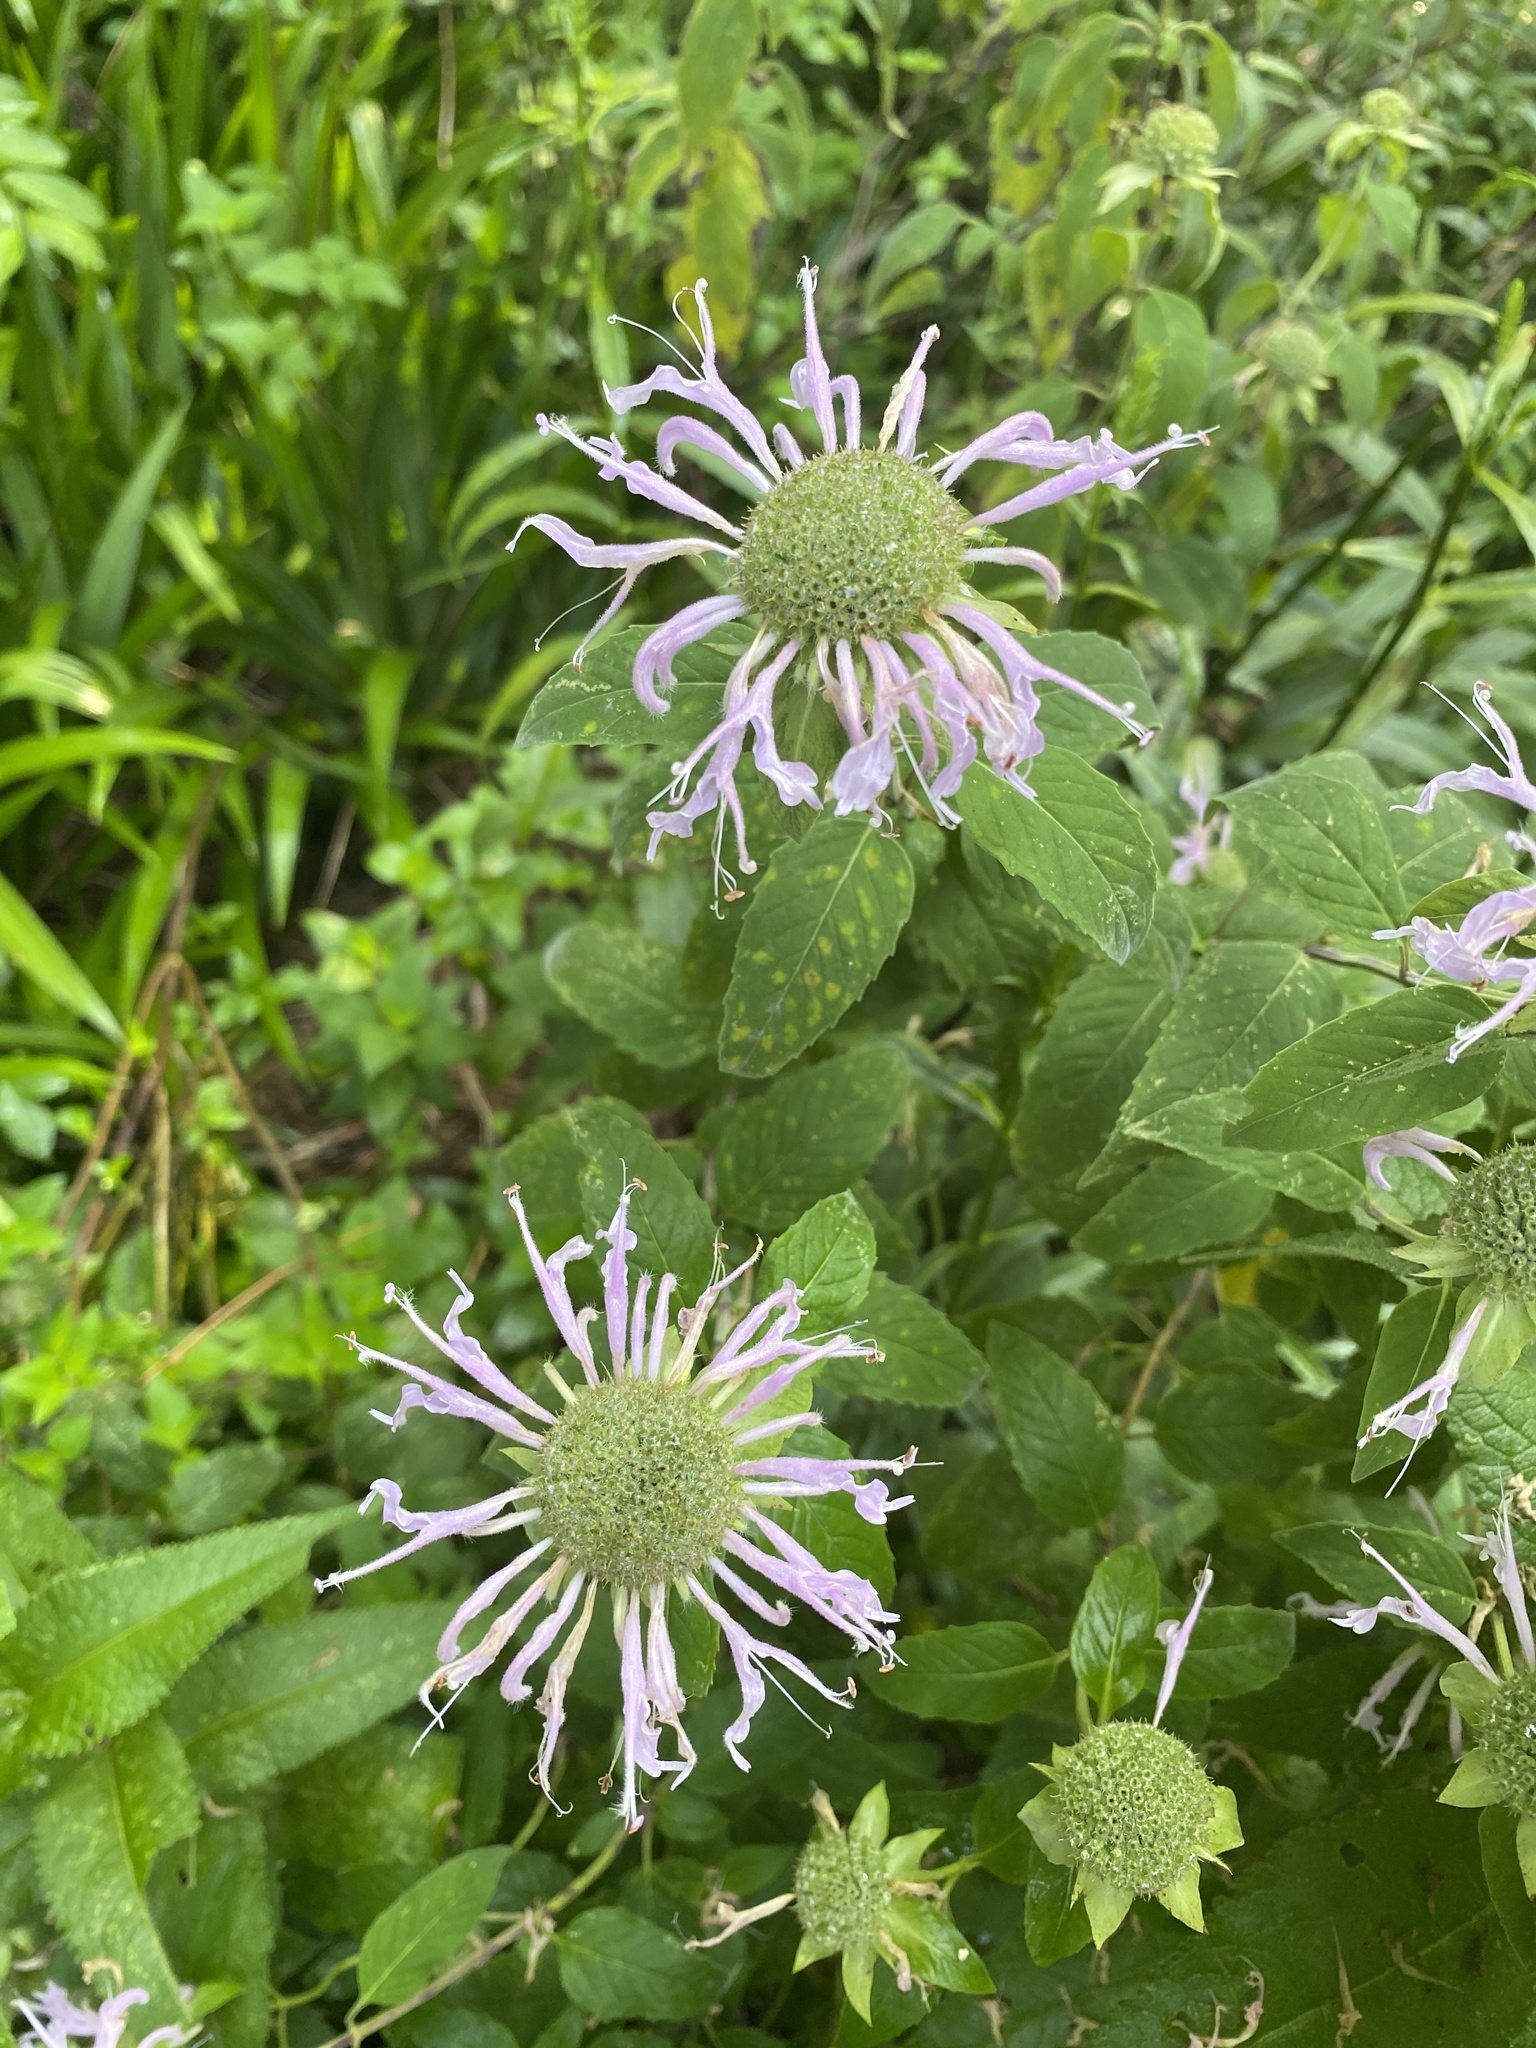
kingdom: Plantae
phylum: Tracheophyta
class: Magnoliopsida
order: Lamiales
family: Lamiaceae
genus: Monarda
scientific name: Monarda fistulosa
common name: Purple beebalm
